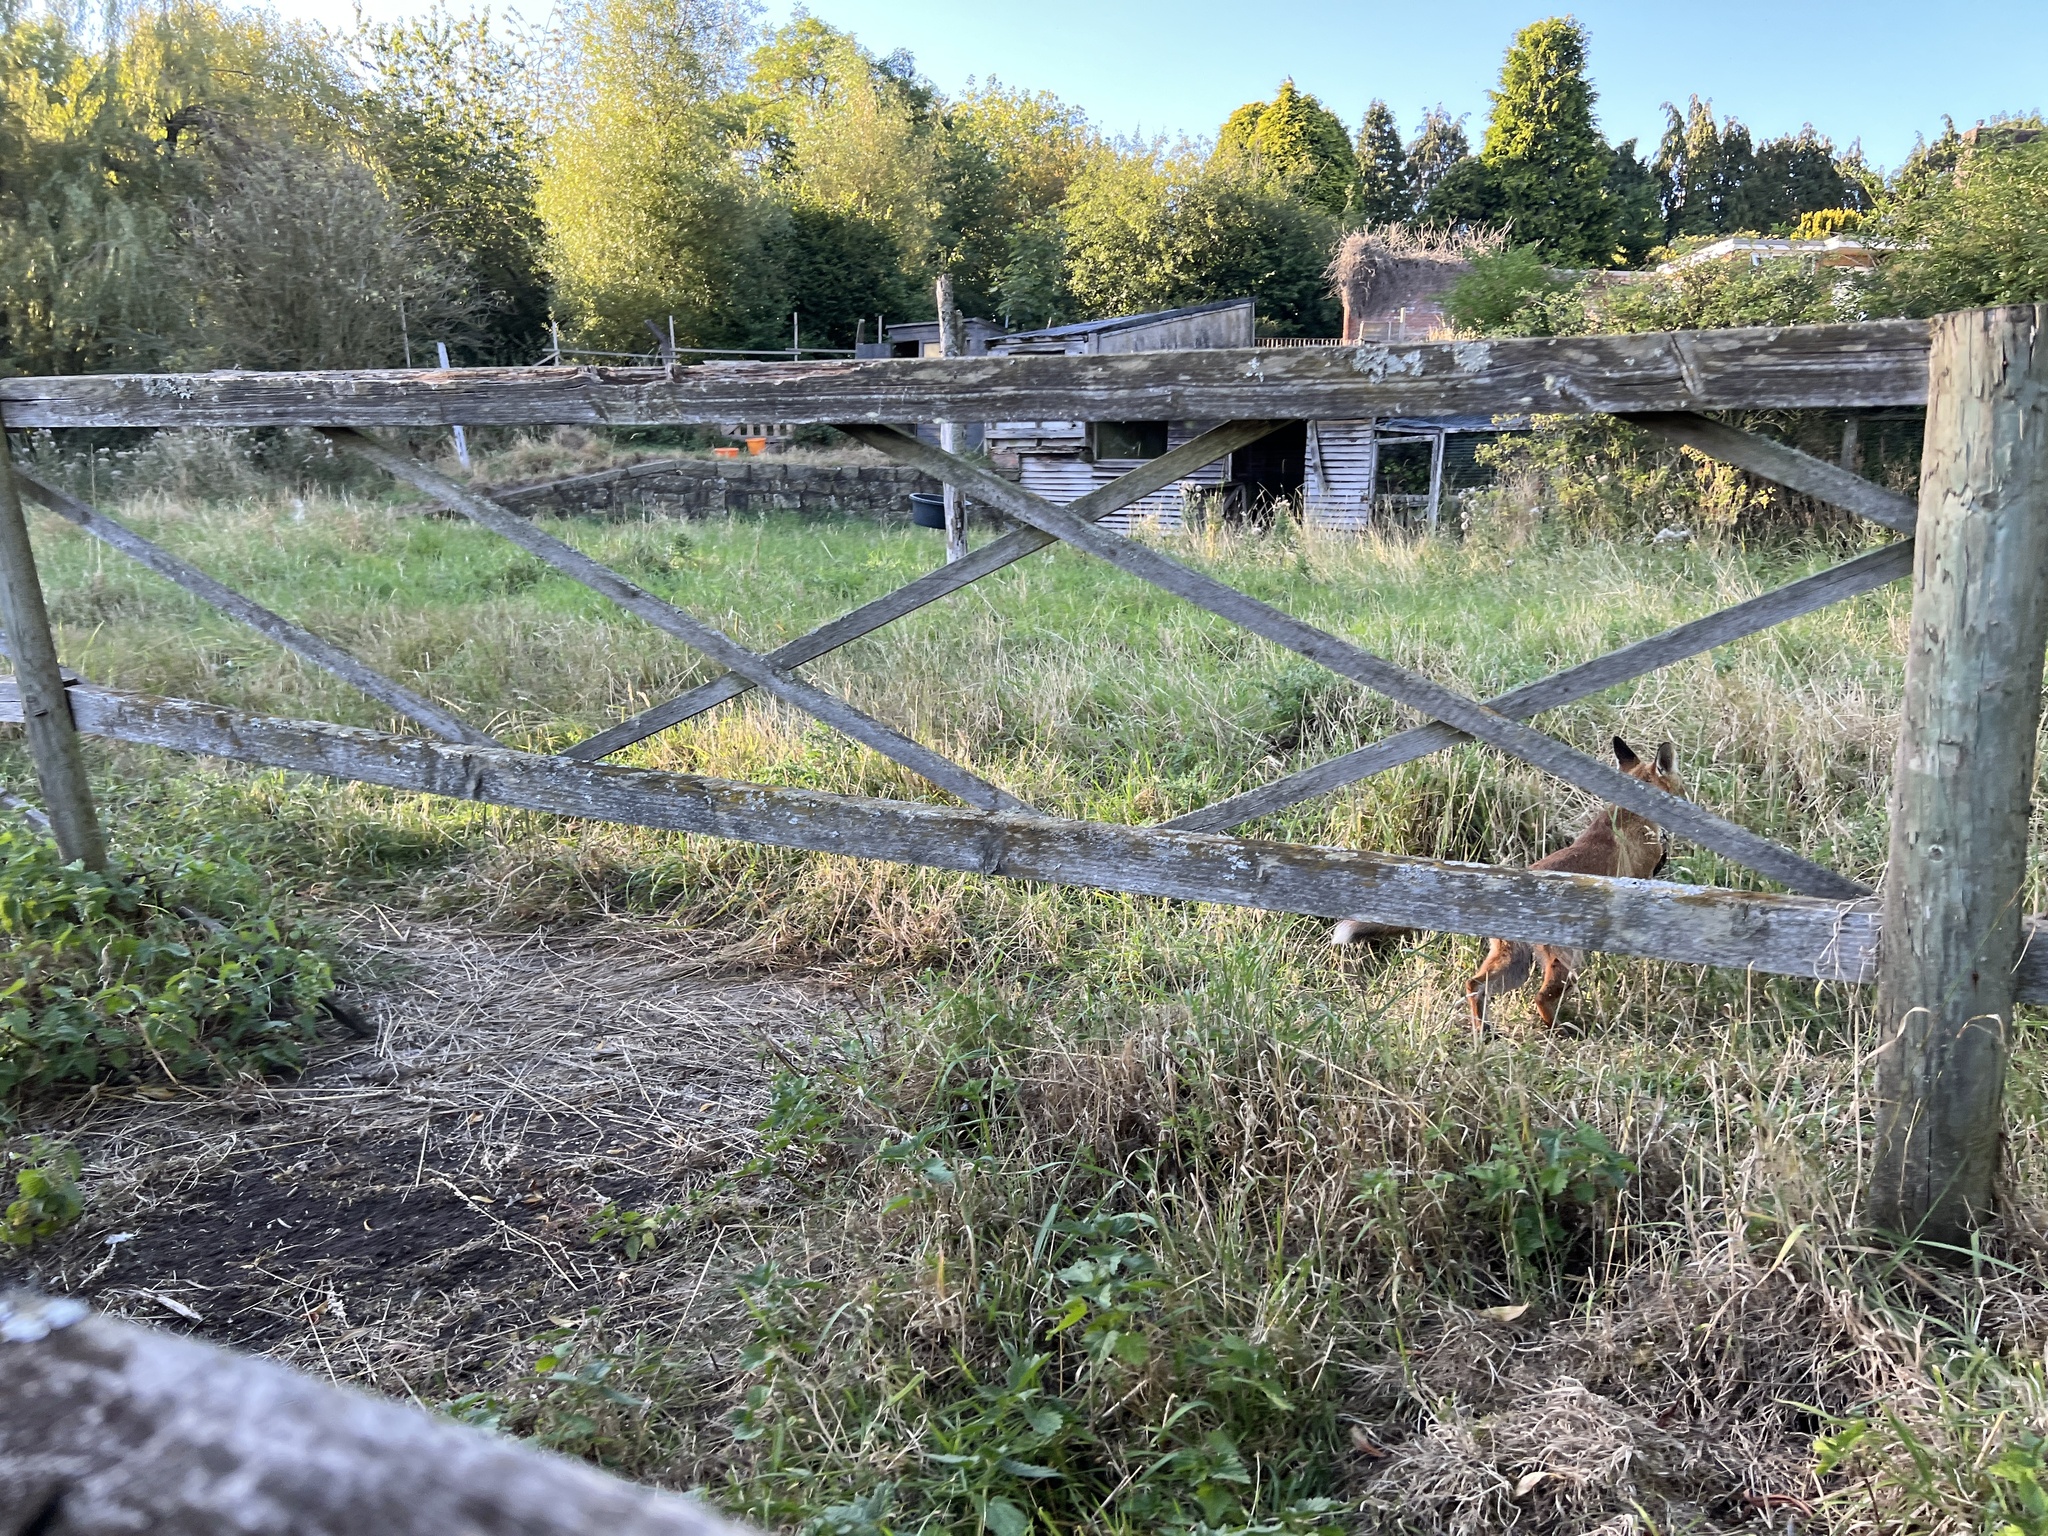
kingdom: Animalia
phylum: Chordata
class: Mammalia
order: Carnivora
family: Canidae
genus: Vulpes
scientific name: Vulpes vulpes
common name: Red fox
